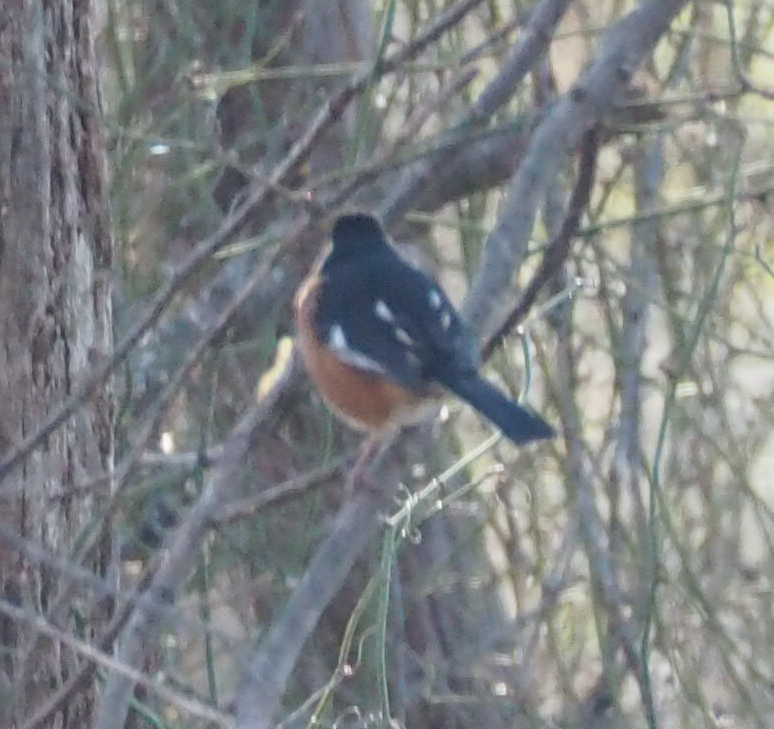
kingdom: Animalia
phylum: Chordata
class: Aves
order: Passeriformes
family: Passerellidae
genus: Pipilo
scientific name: Pipilo erythrophthalmus
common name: Eastern towhee
